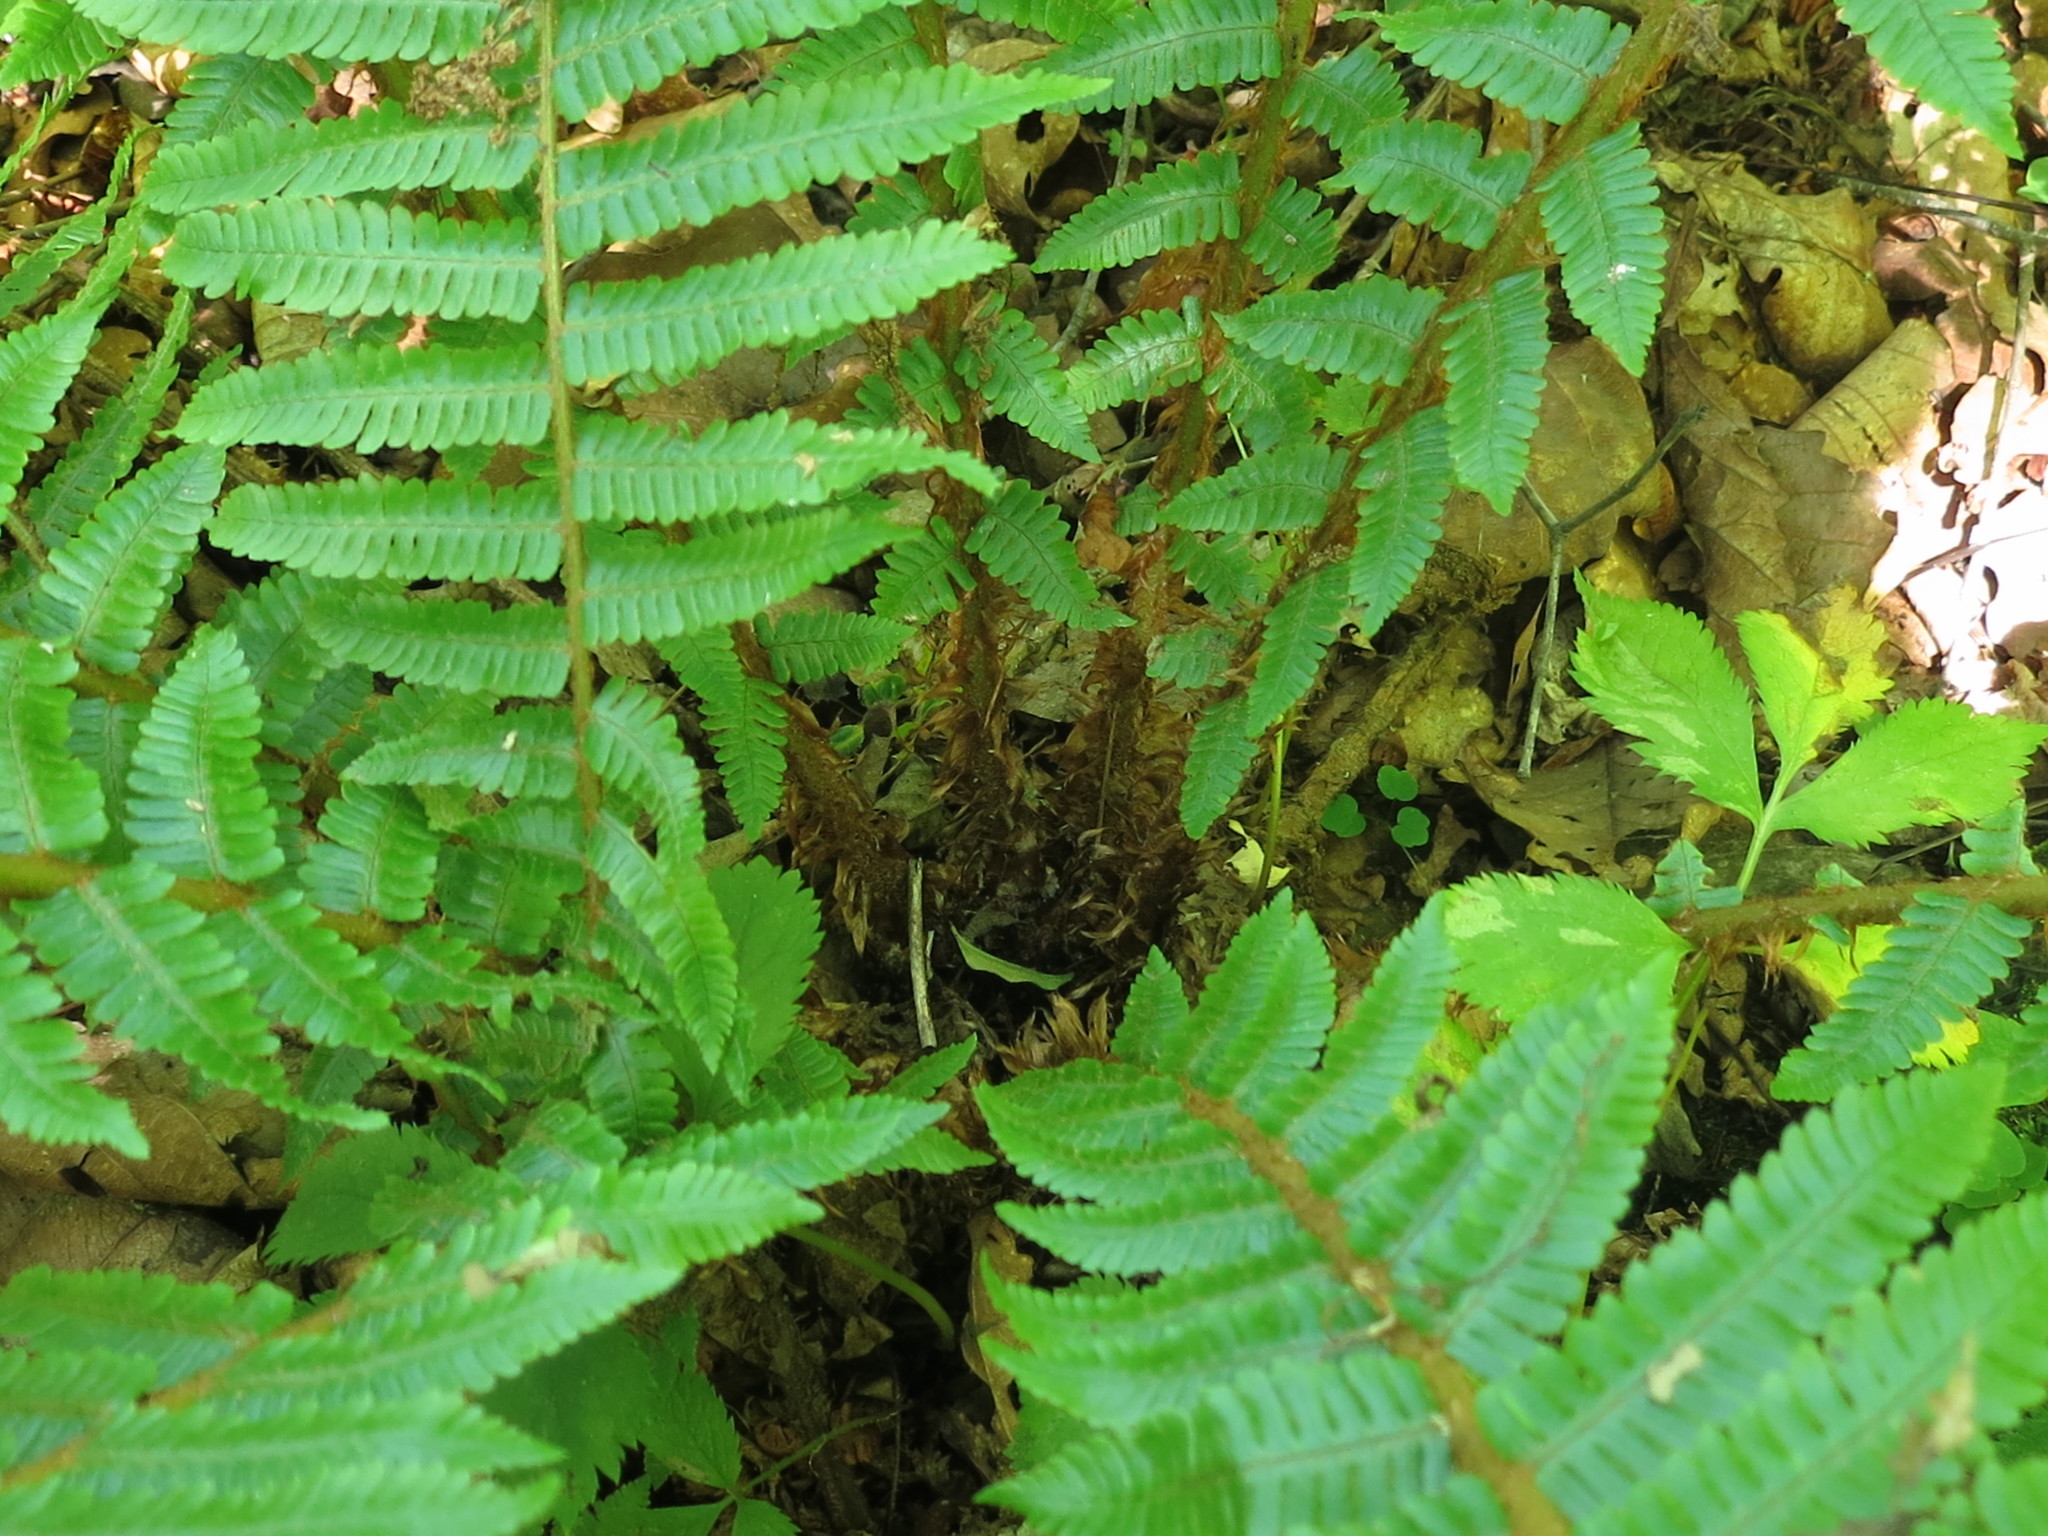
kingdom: Plantae
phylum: Tracheophyta
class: Polypodiopsida
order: Polypodiales
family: Dryopteridaceae
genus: Dryopteris
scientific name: Dryopteris crassirhizoma
